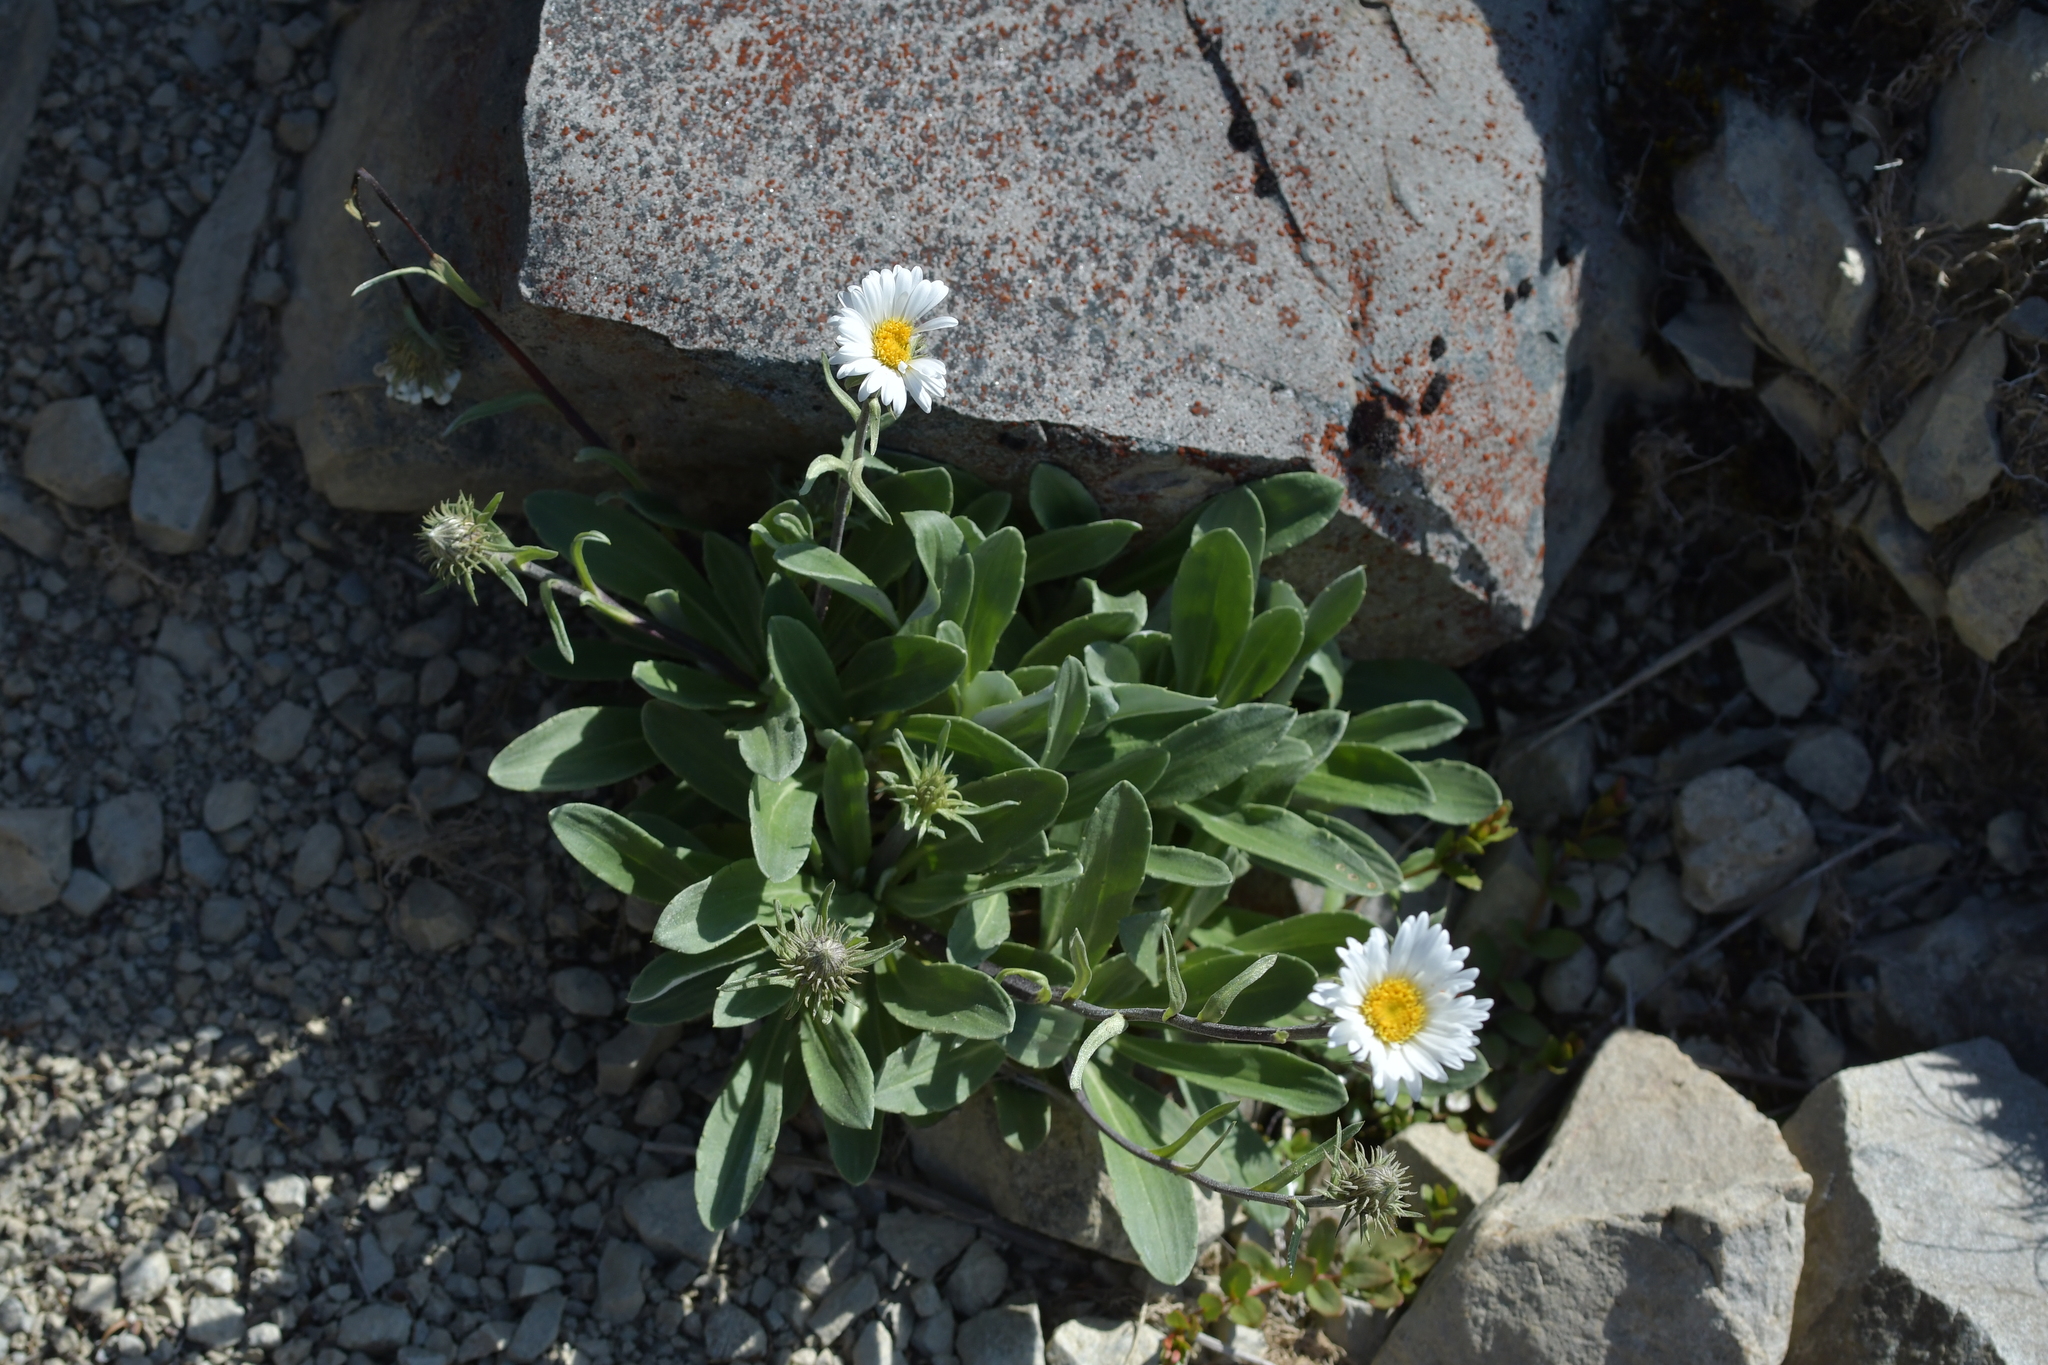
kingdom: Plantae
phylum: Tracheophyta
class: Magnoliopsida
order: Asterales
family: Asteraceae
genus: Celmisia
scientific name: Celmisia durietzii
